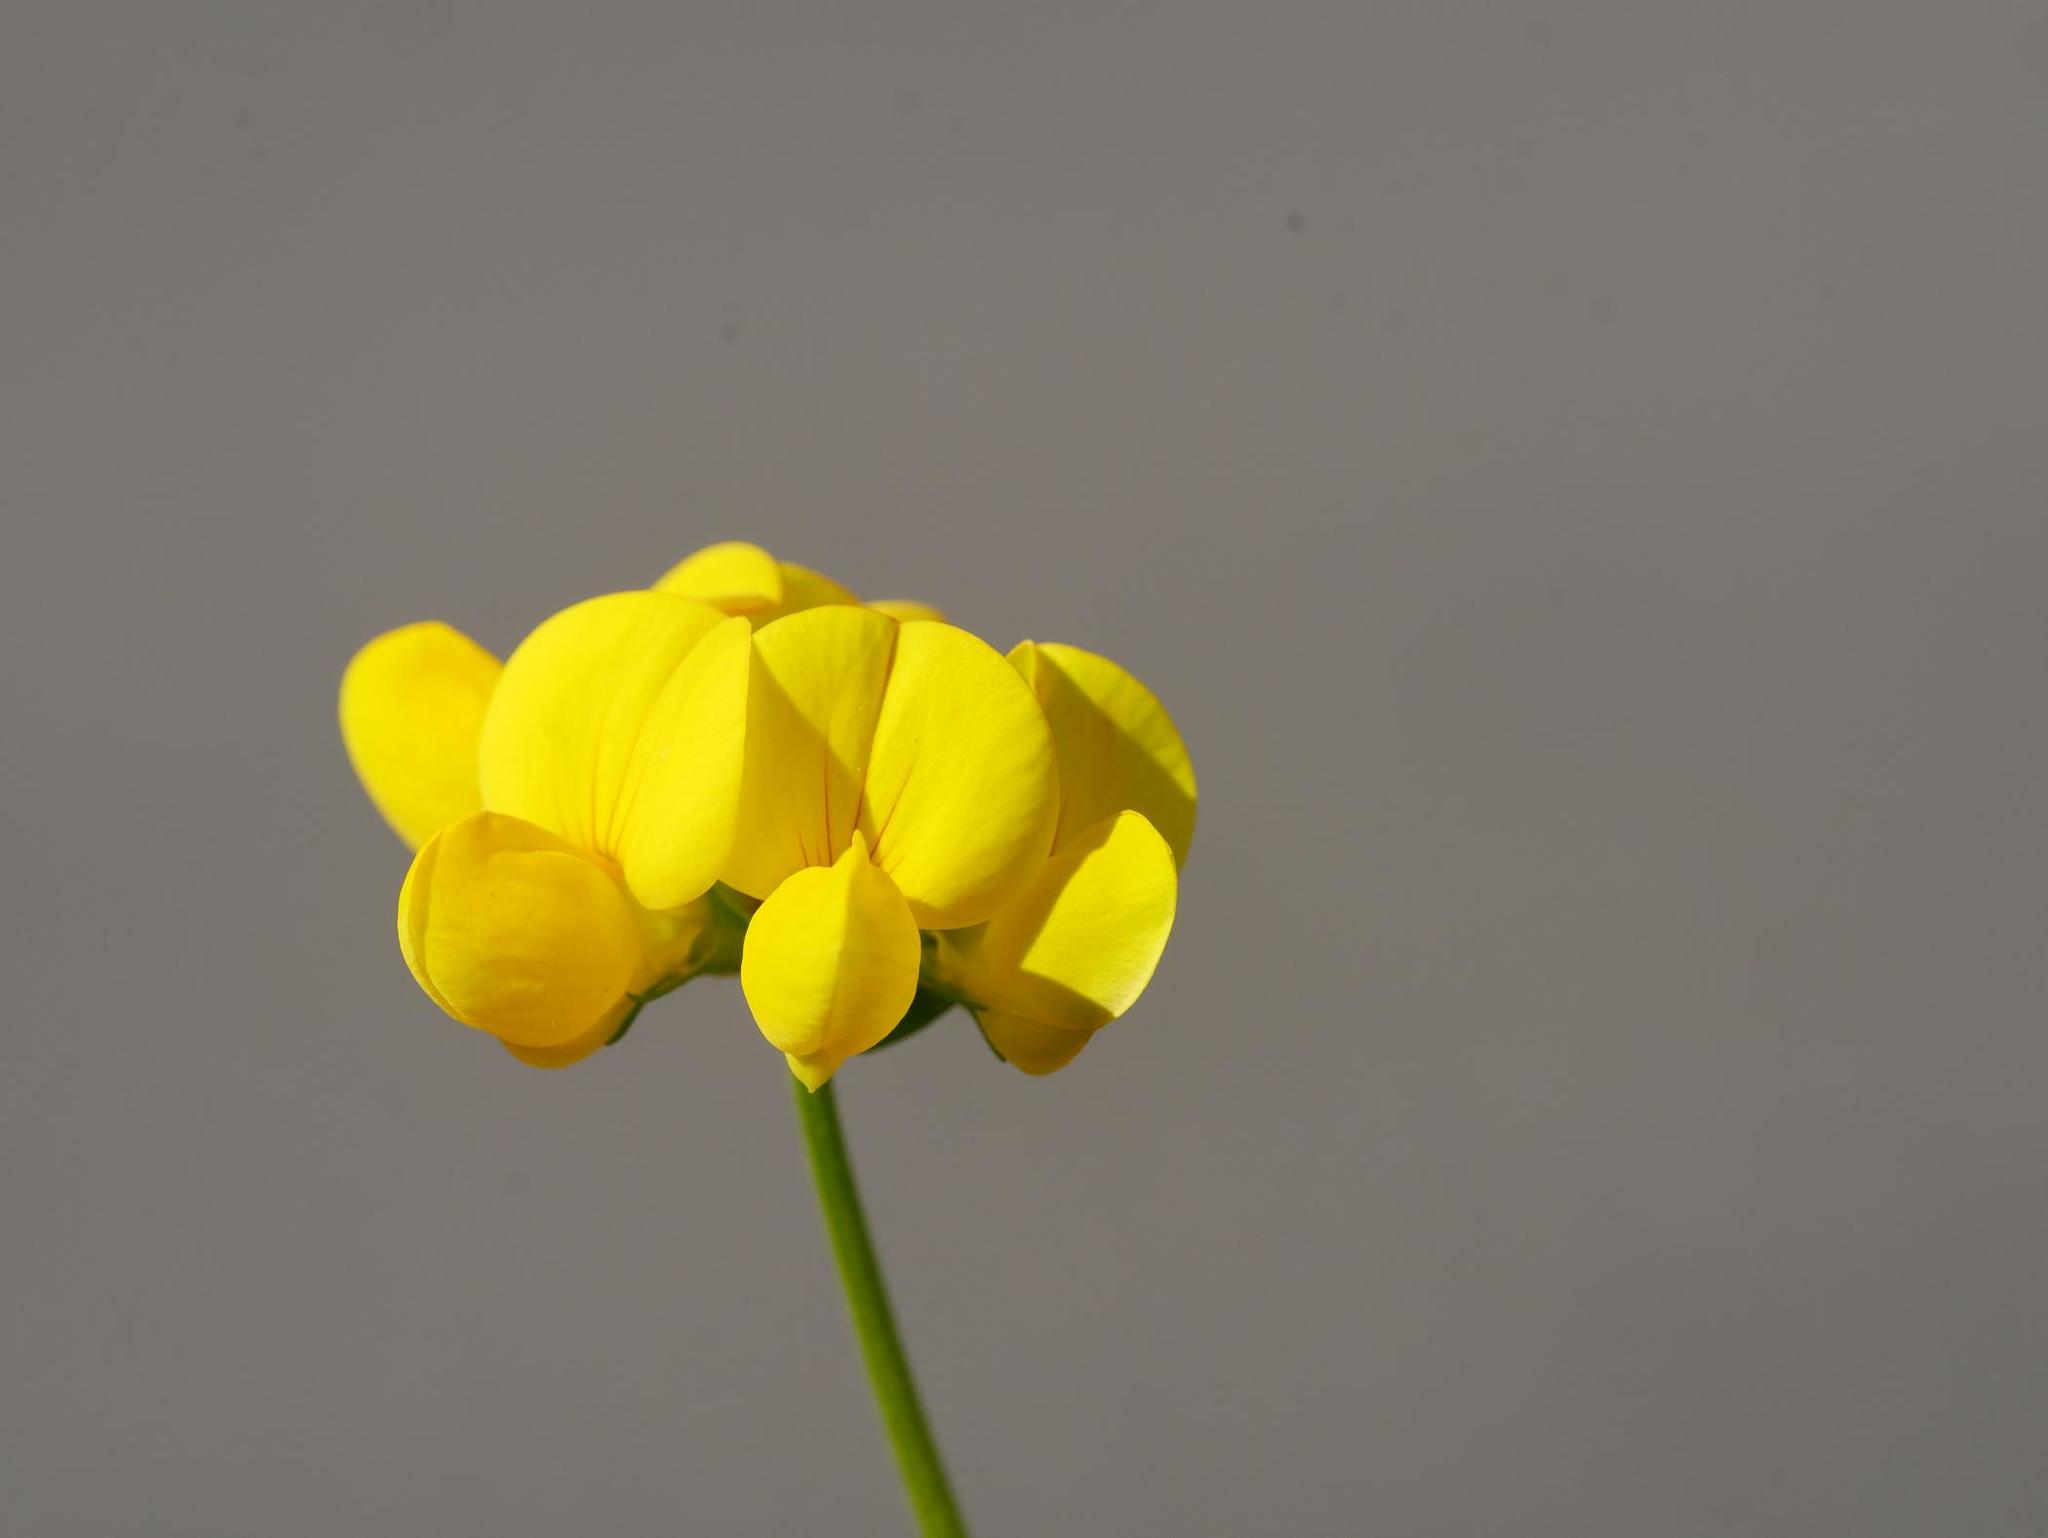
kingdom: Plantae
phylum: Tracheophyta
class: Magnoliopsida
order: Fabales
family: Fabaceae
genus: Lotus
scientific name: Lotus corniculatus
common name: Common bird's-foot-trefoil
